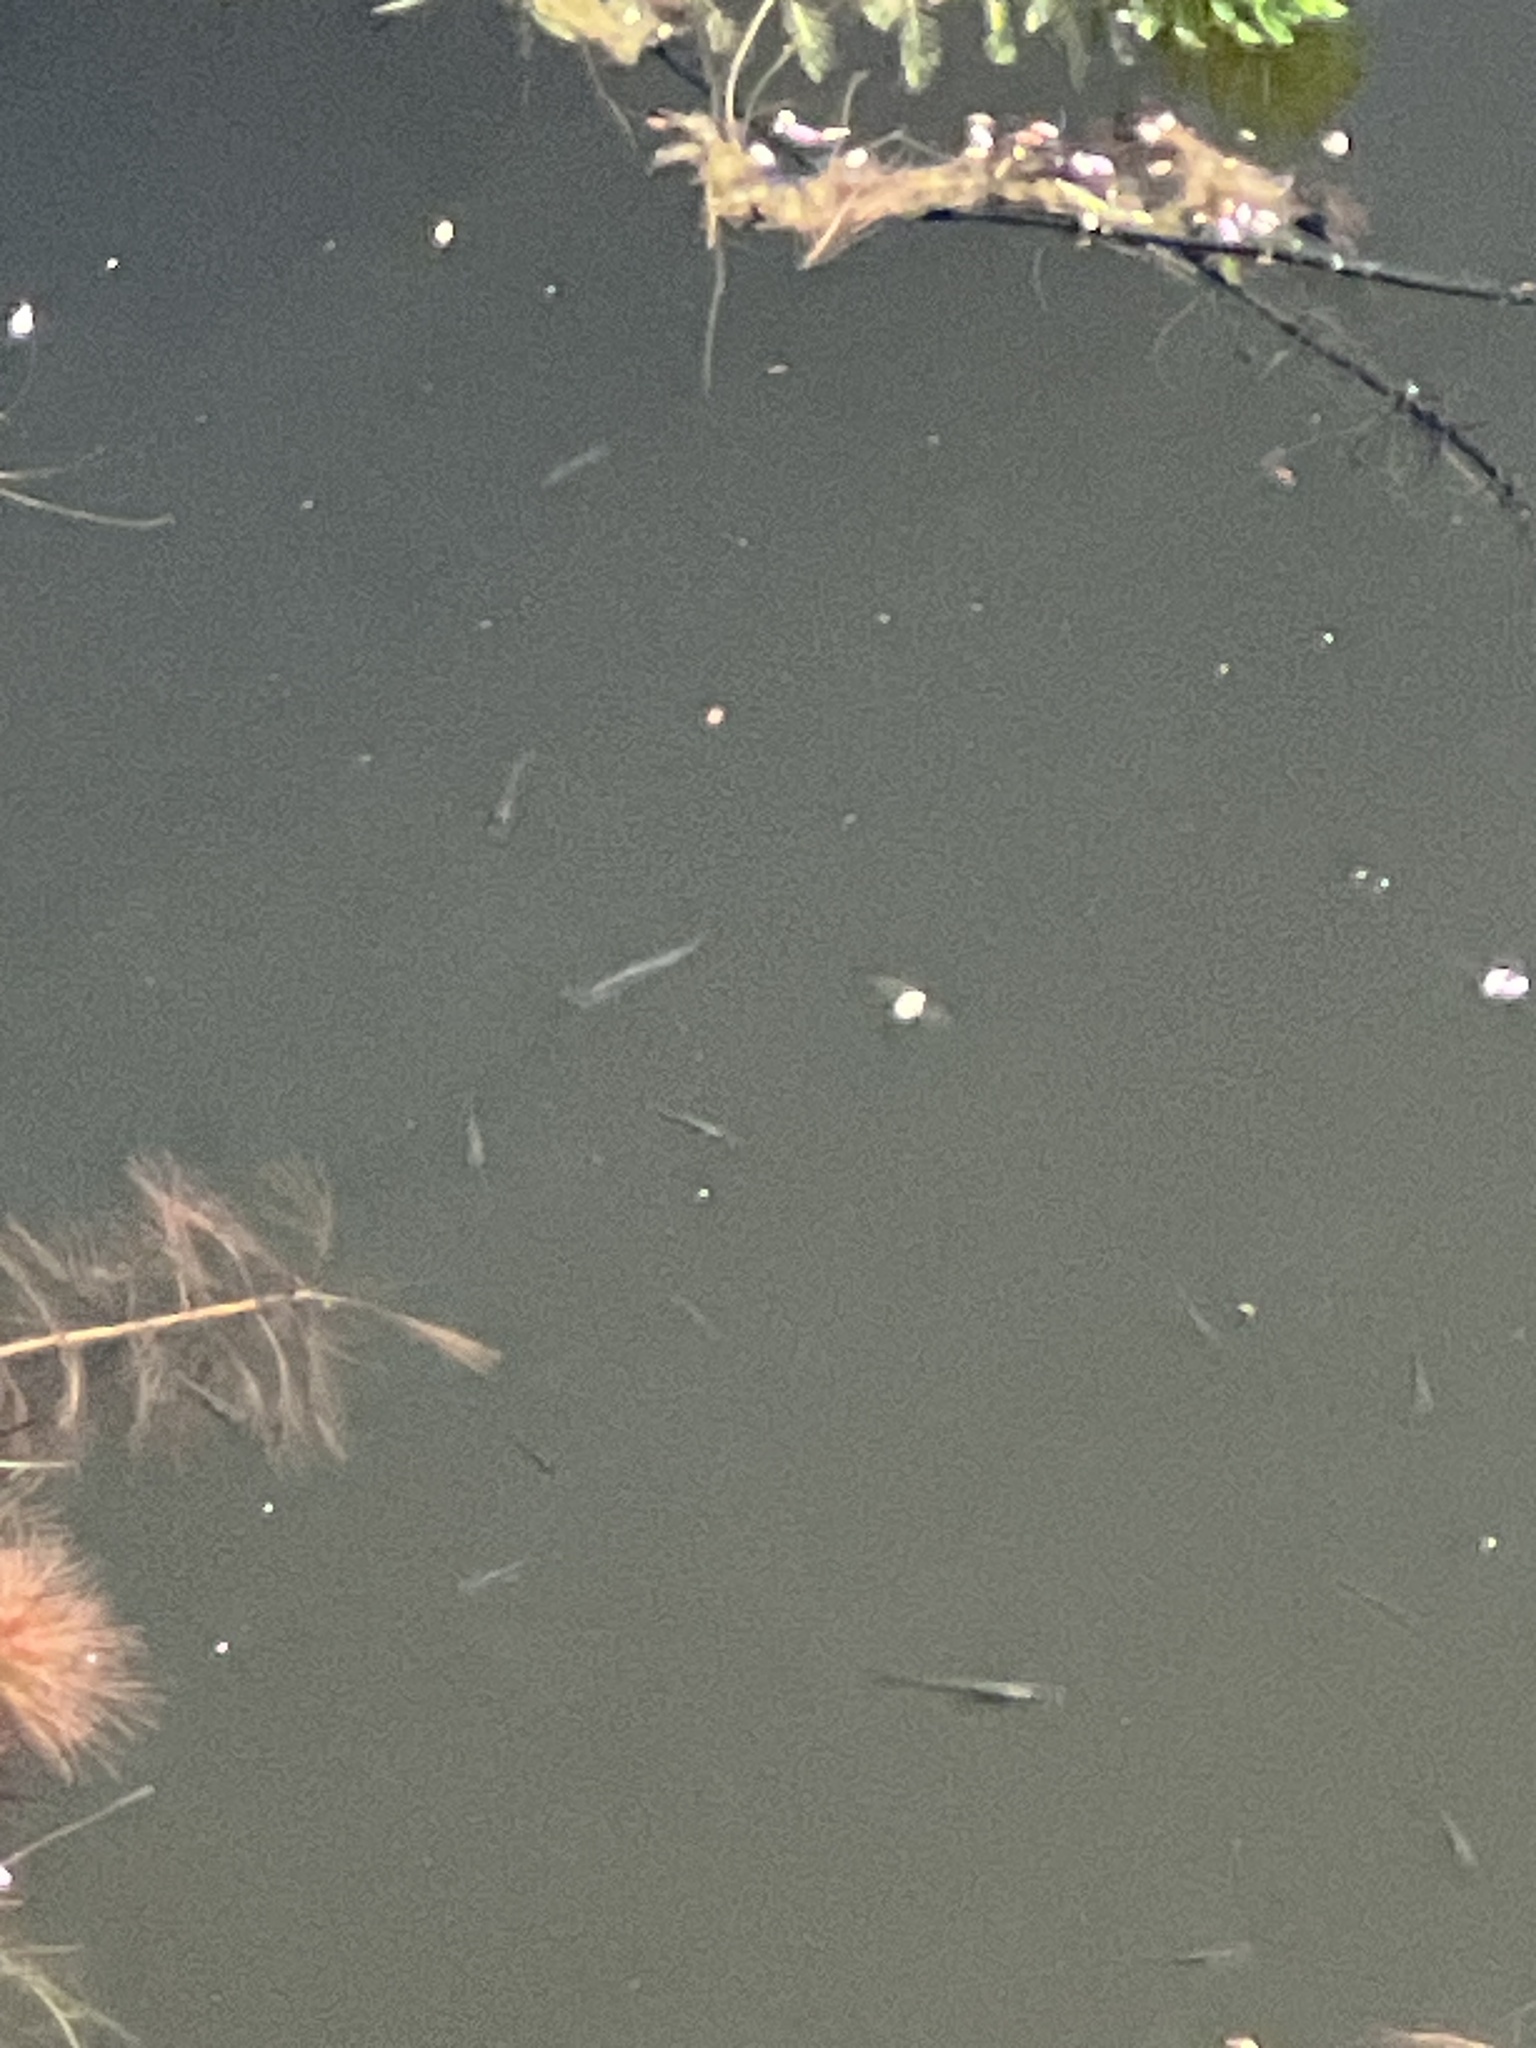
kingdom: Animalia
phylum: Chordata
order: Cyprinodontiformes
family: Poeciliidae
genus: Gambusia
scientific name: Gambusia affinis
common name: Mosquitofish
